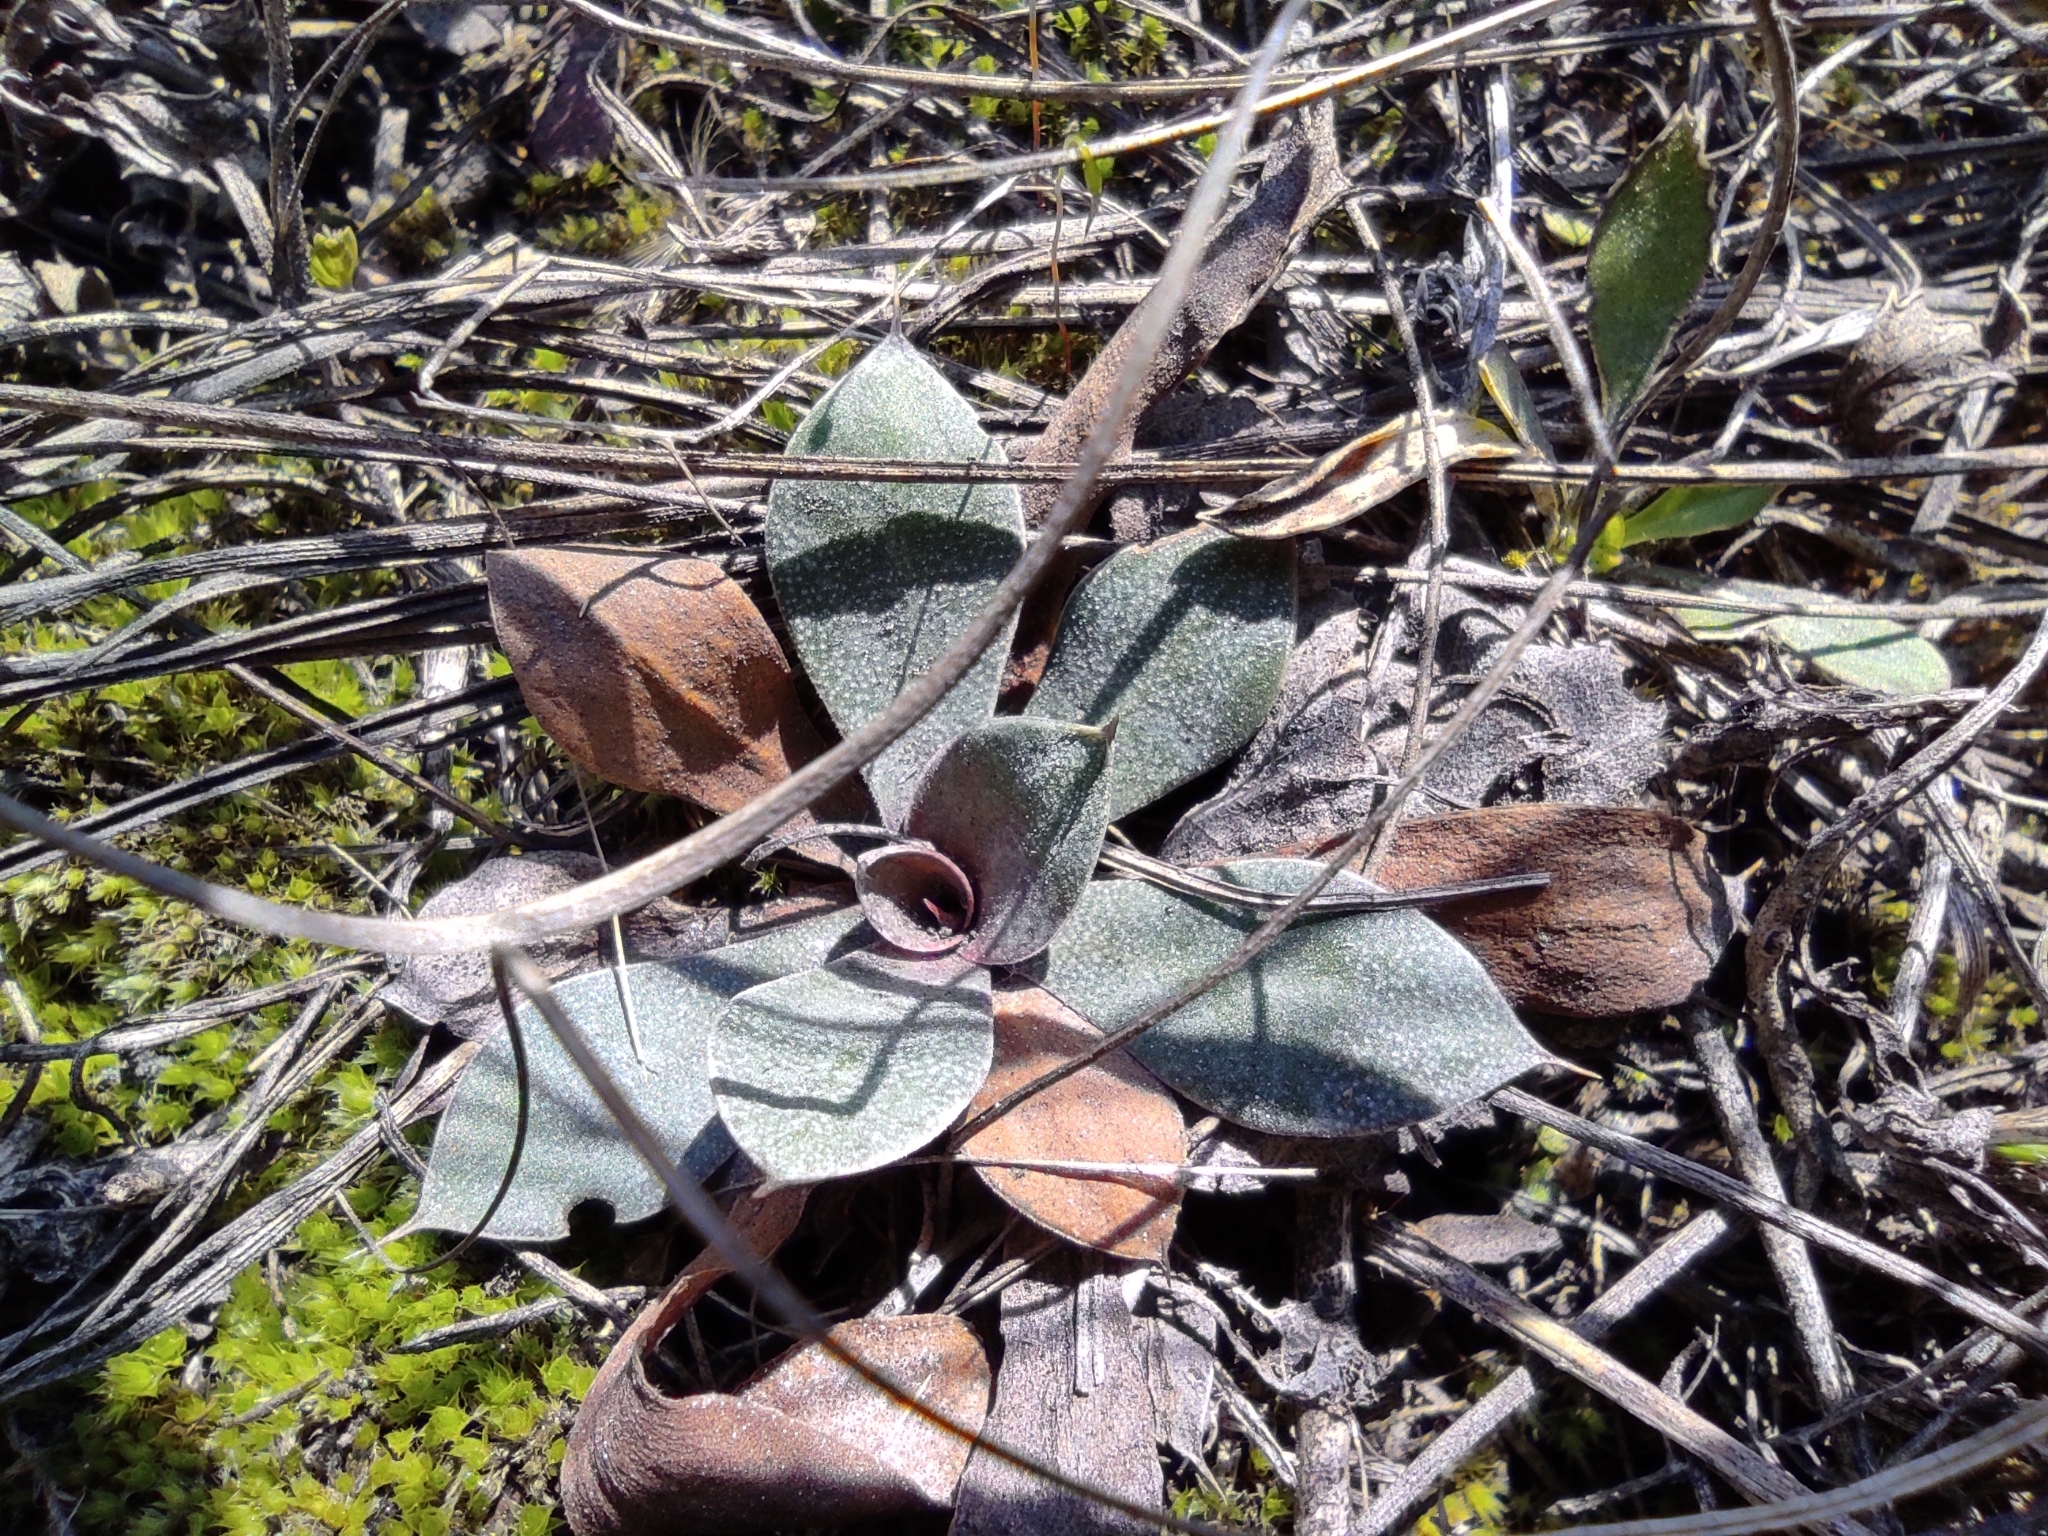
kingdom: Plantae
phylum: Tracheophyta
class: Magnoliopsida
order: Caryophyllales
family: Plumbaginaceae
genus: Goniolimon
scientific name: Goniolimon speciosum
